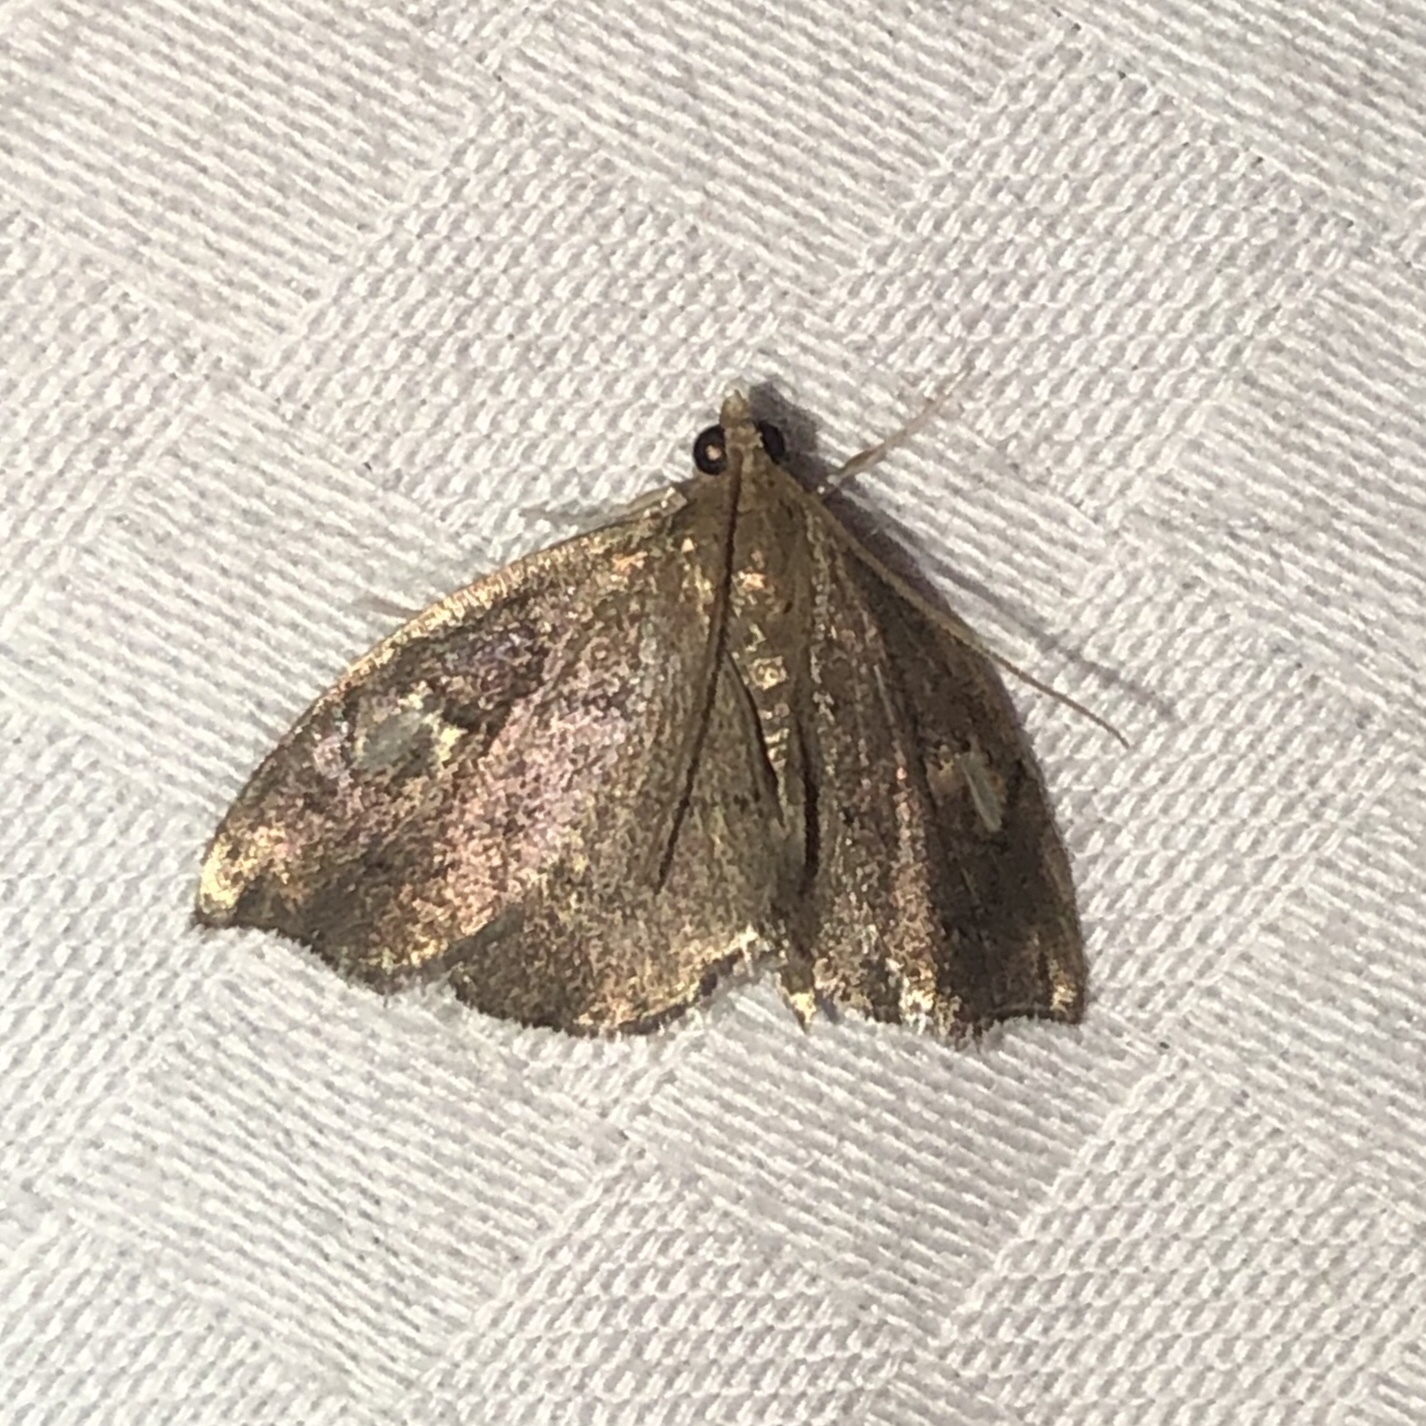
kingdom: Animalia
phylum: Arthropoda
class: Insecta
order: Lepidoptera
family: Crambidae
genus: Perispasta
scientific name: Perispasta caeculalis
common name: Titian peale's moth
